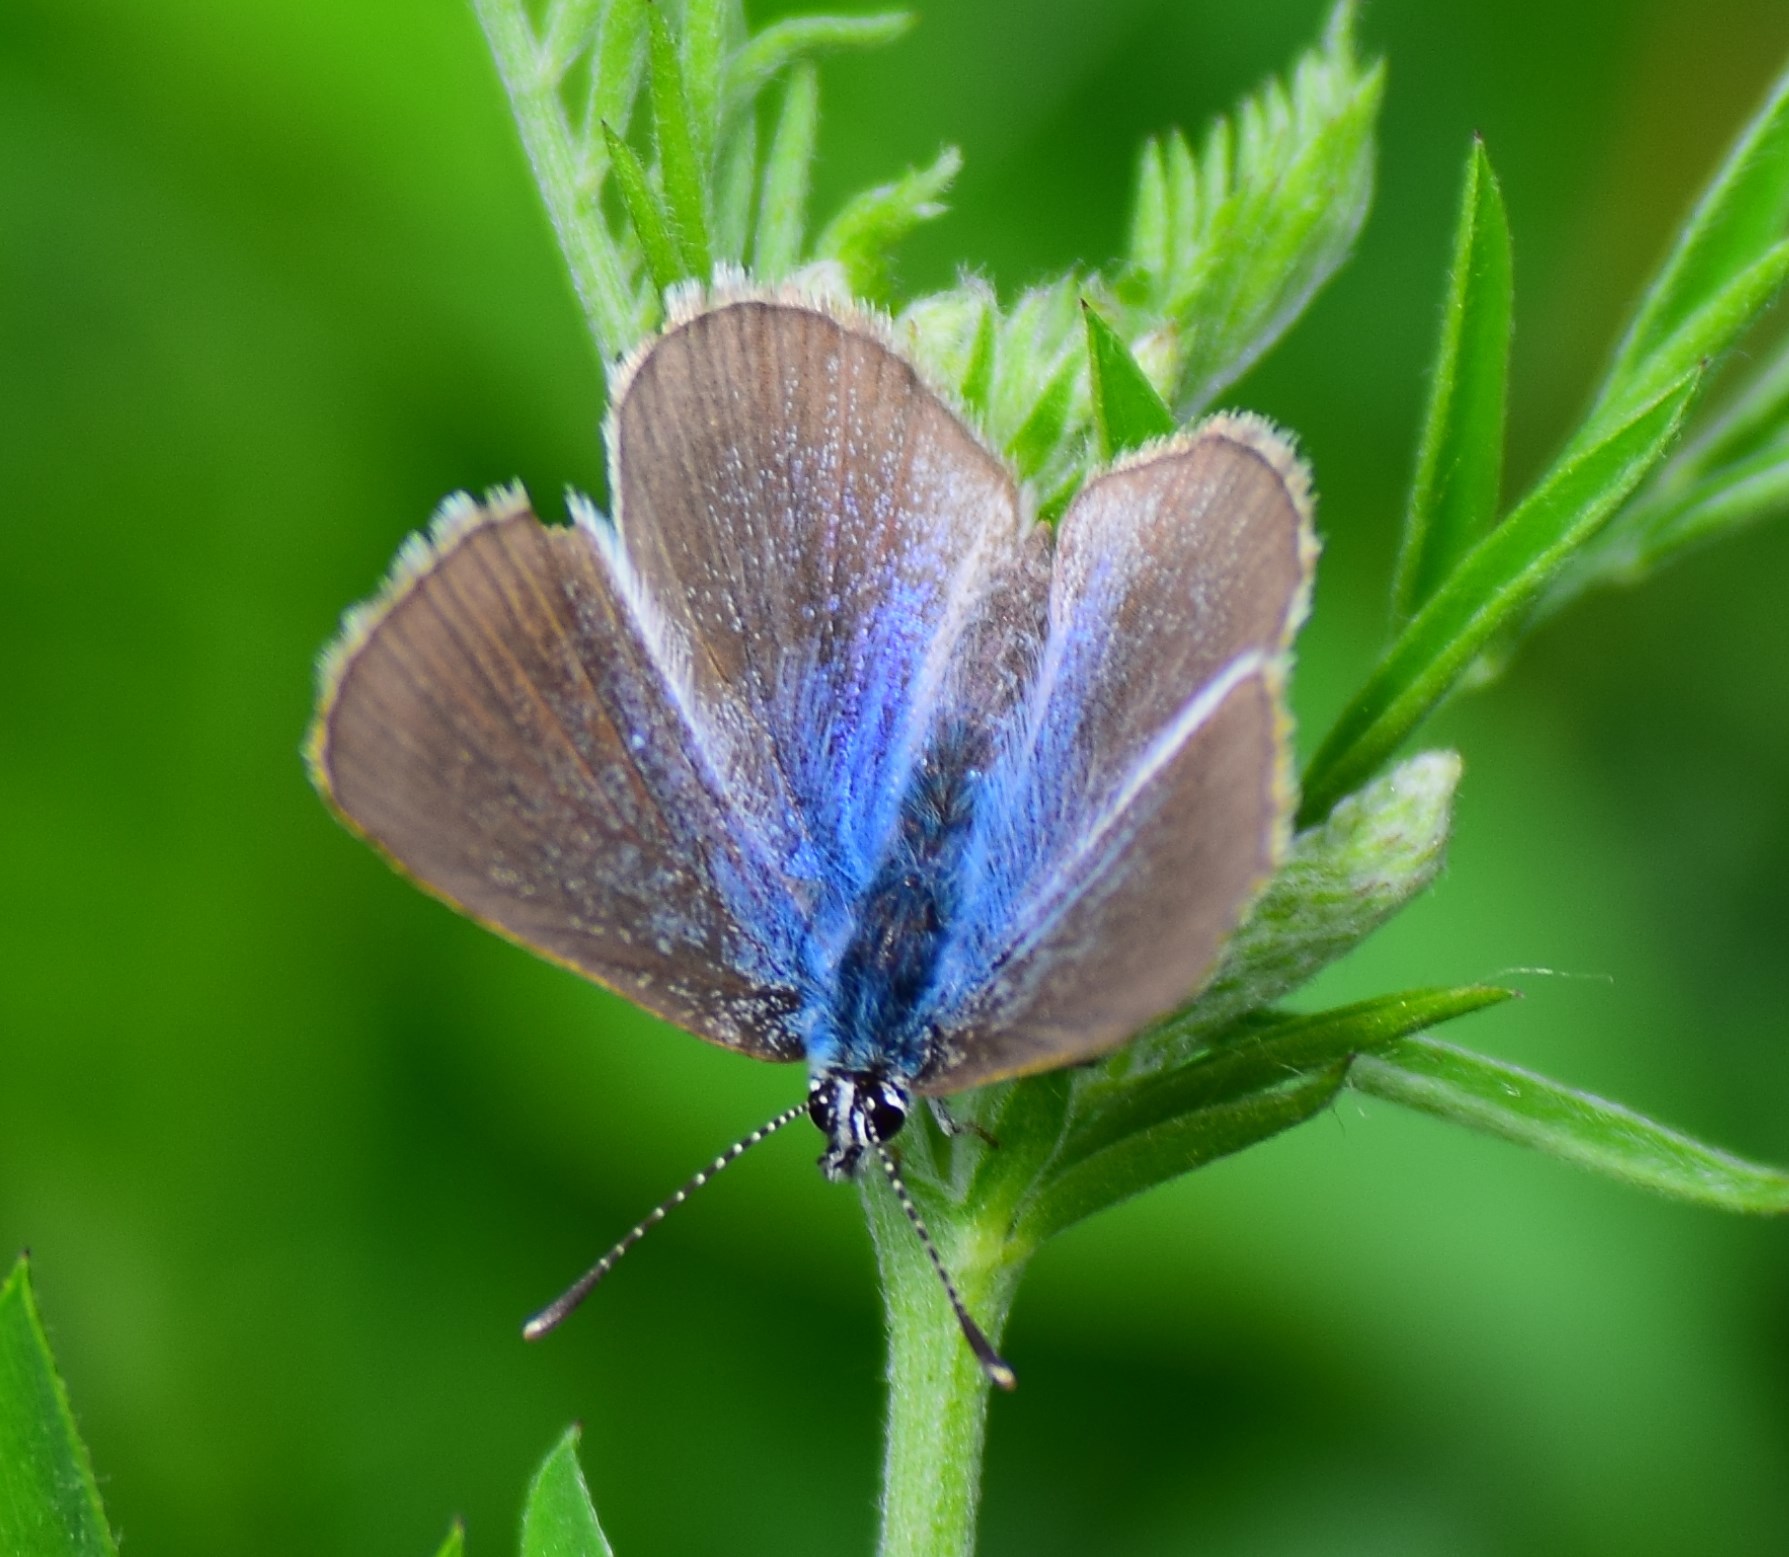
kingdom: Animalia
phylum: Arthropoda
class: Insecta
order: Lepidoptera
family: Lycaenidae
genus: Glaucopsyche
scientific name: Glaucopsyche lygdamus
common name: Silvery blue
